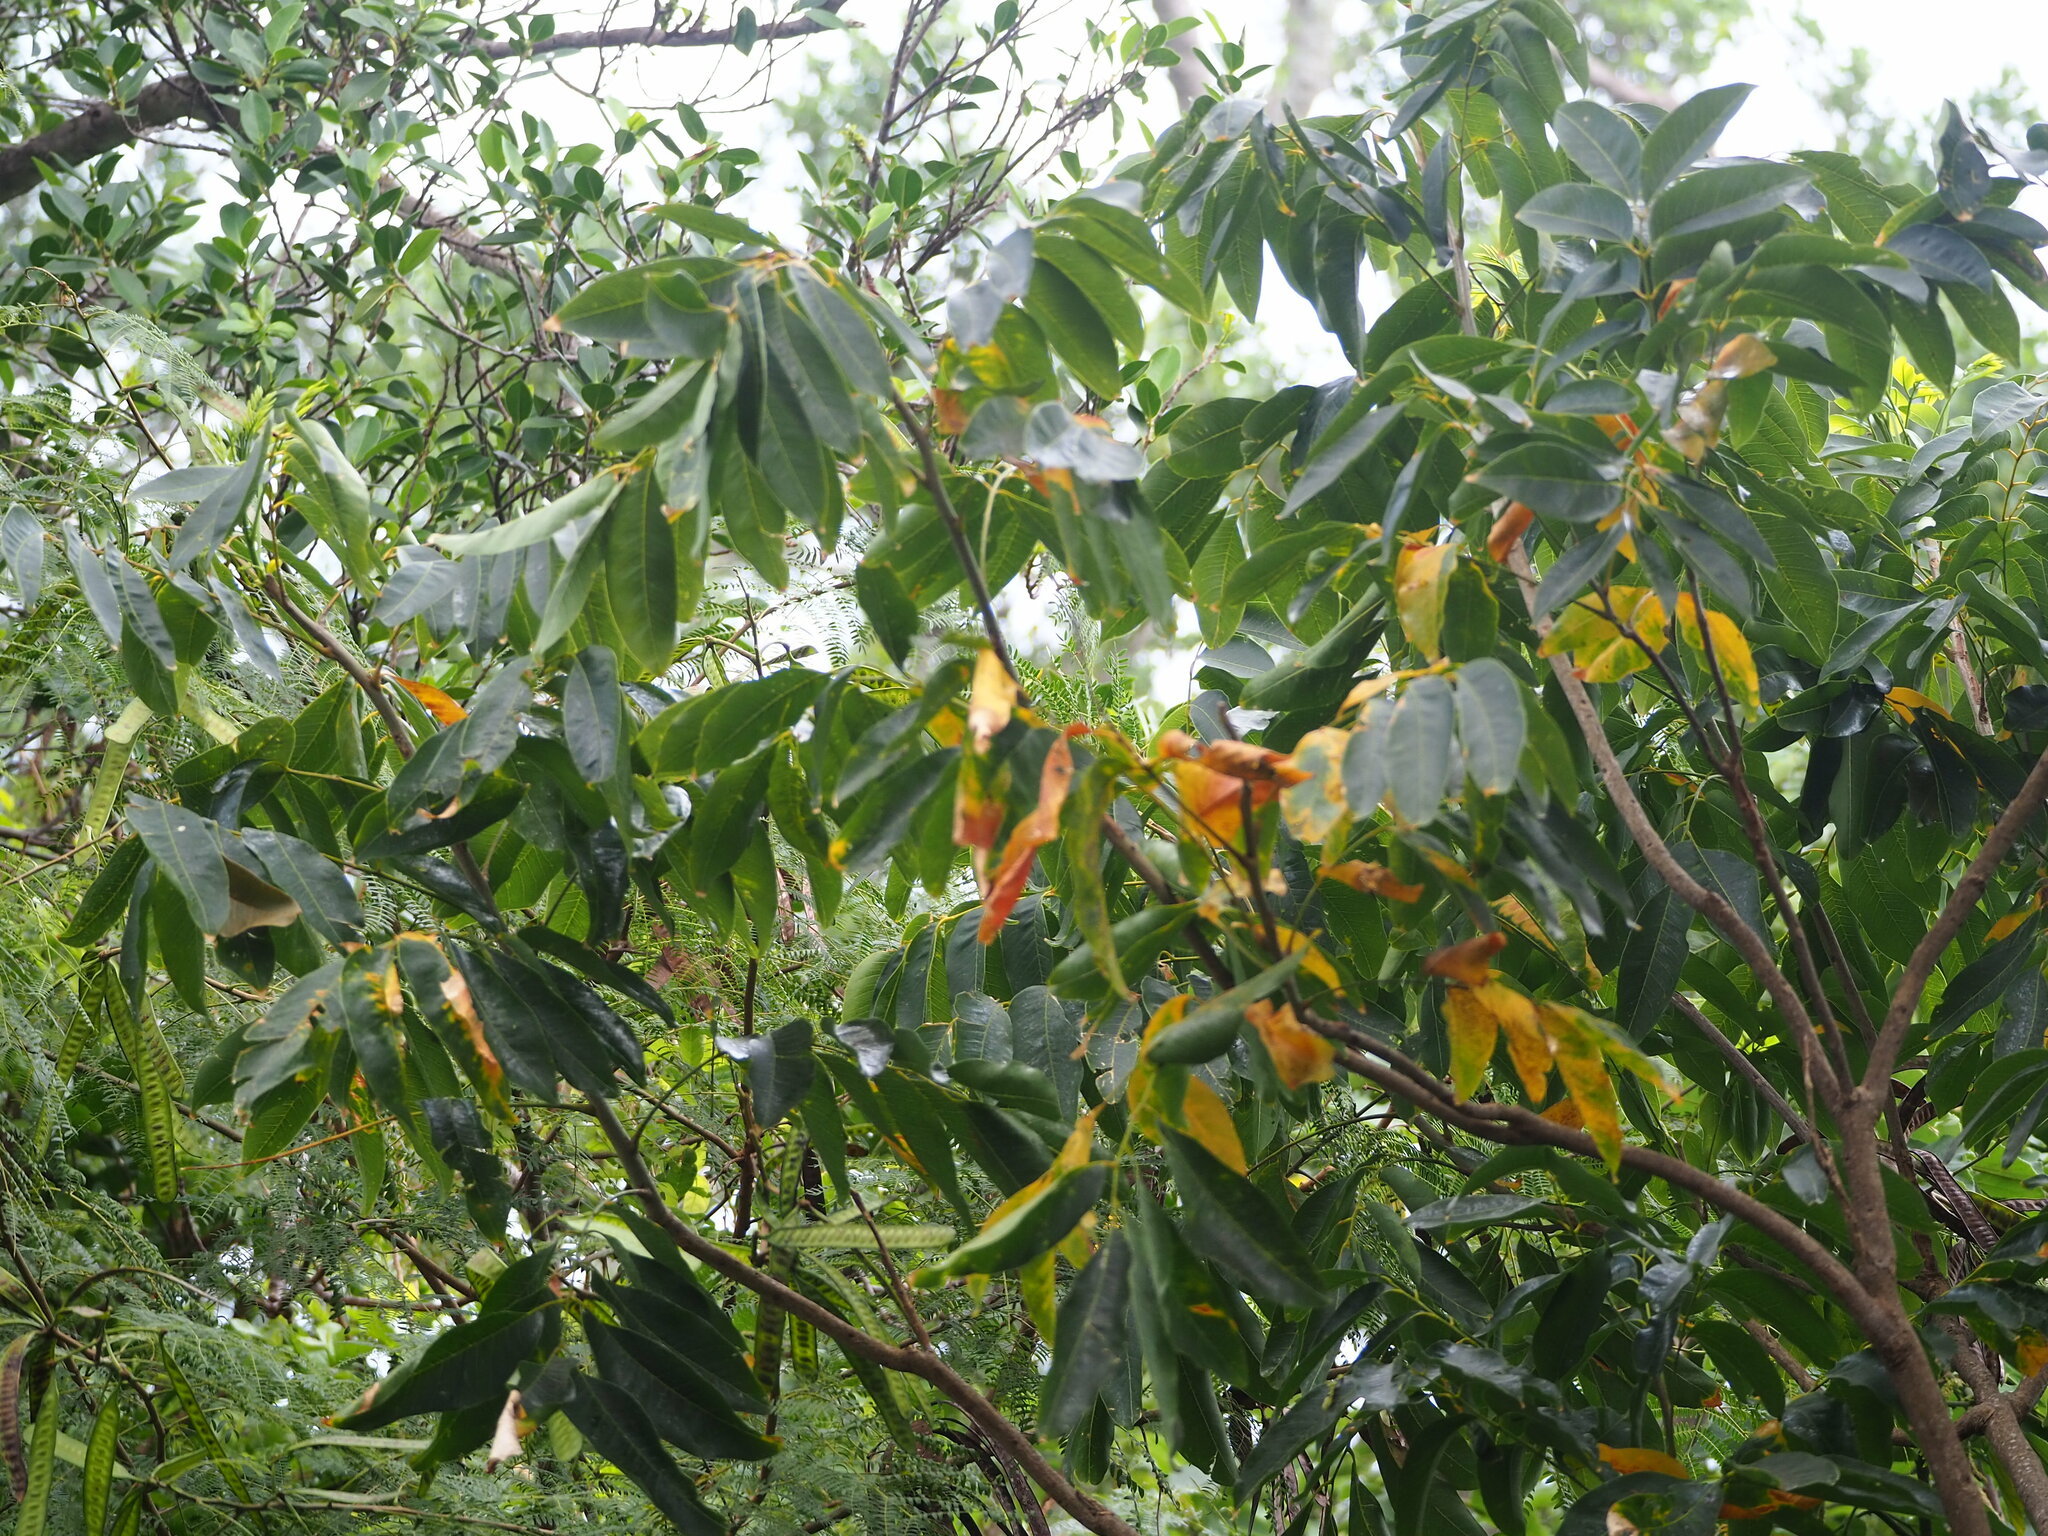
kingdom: Plantae
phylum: Tracheophyta
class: Magnoliopsida
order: Sapindales
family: Sapindaceae
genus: Sapindus
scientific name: Sapindus mukorossi
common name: Chinese soapberry
